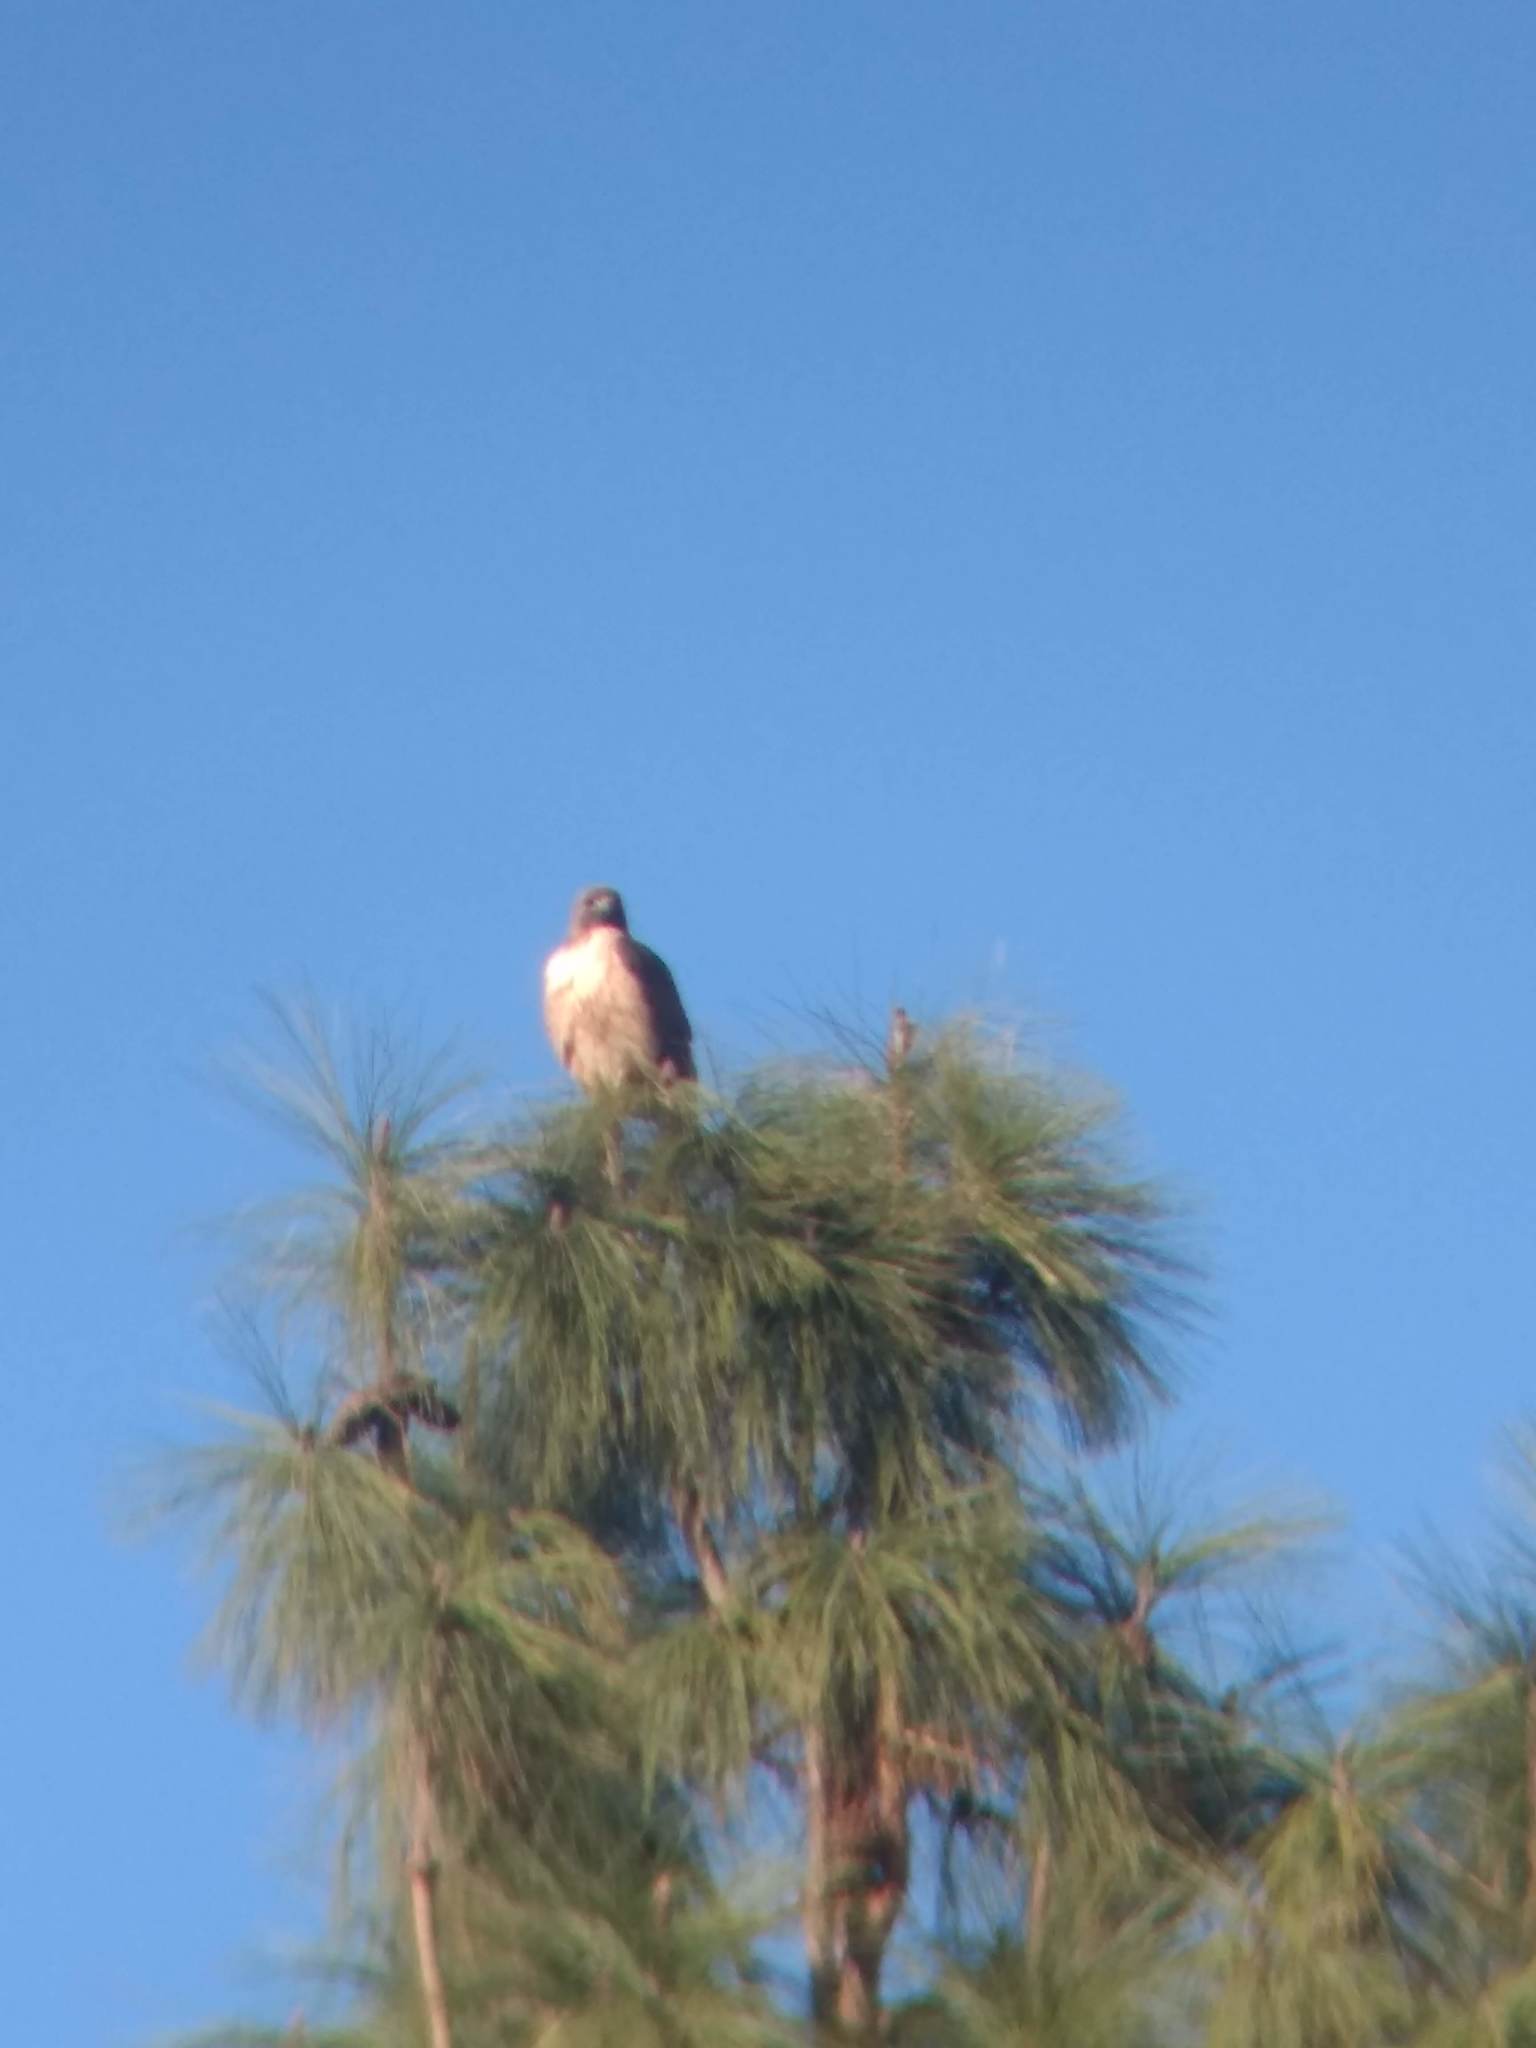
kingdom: Animalia
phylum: Chordata
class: Aves
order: Accipitriformes
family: Accipitridae
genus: Buteo
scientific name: Buteo jamaicensis
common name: Red-tailed hawk
